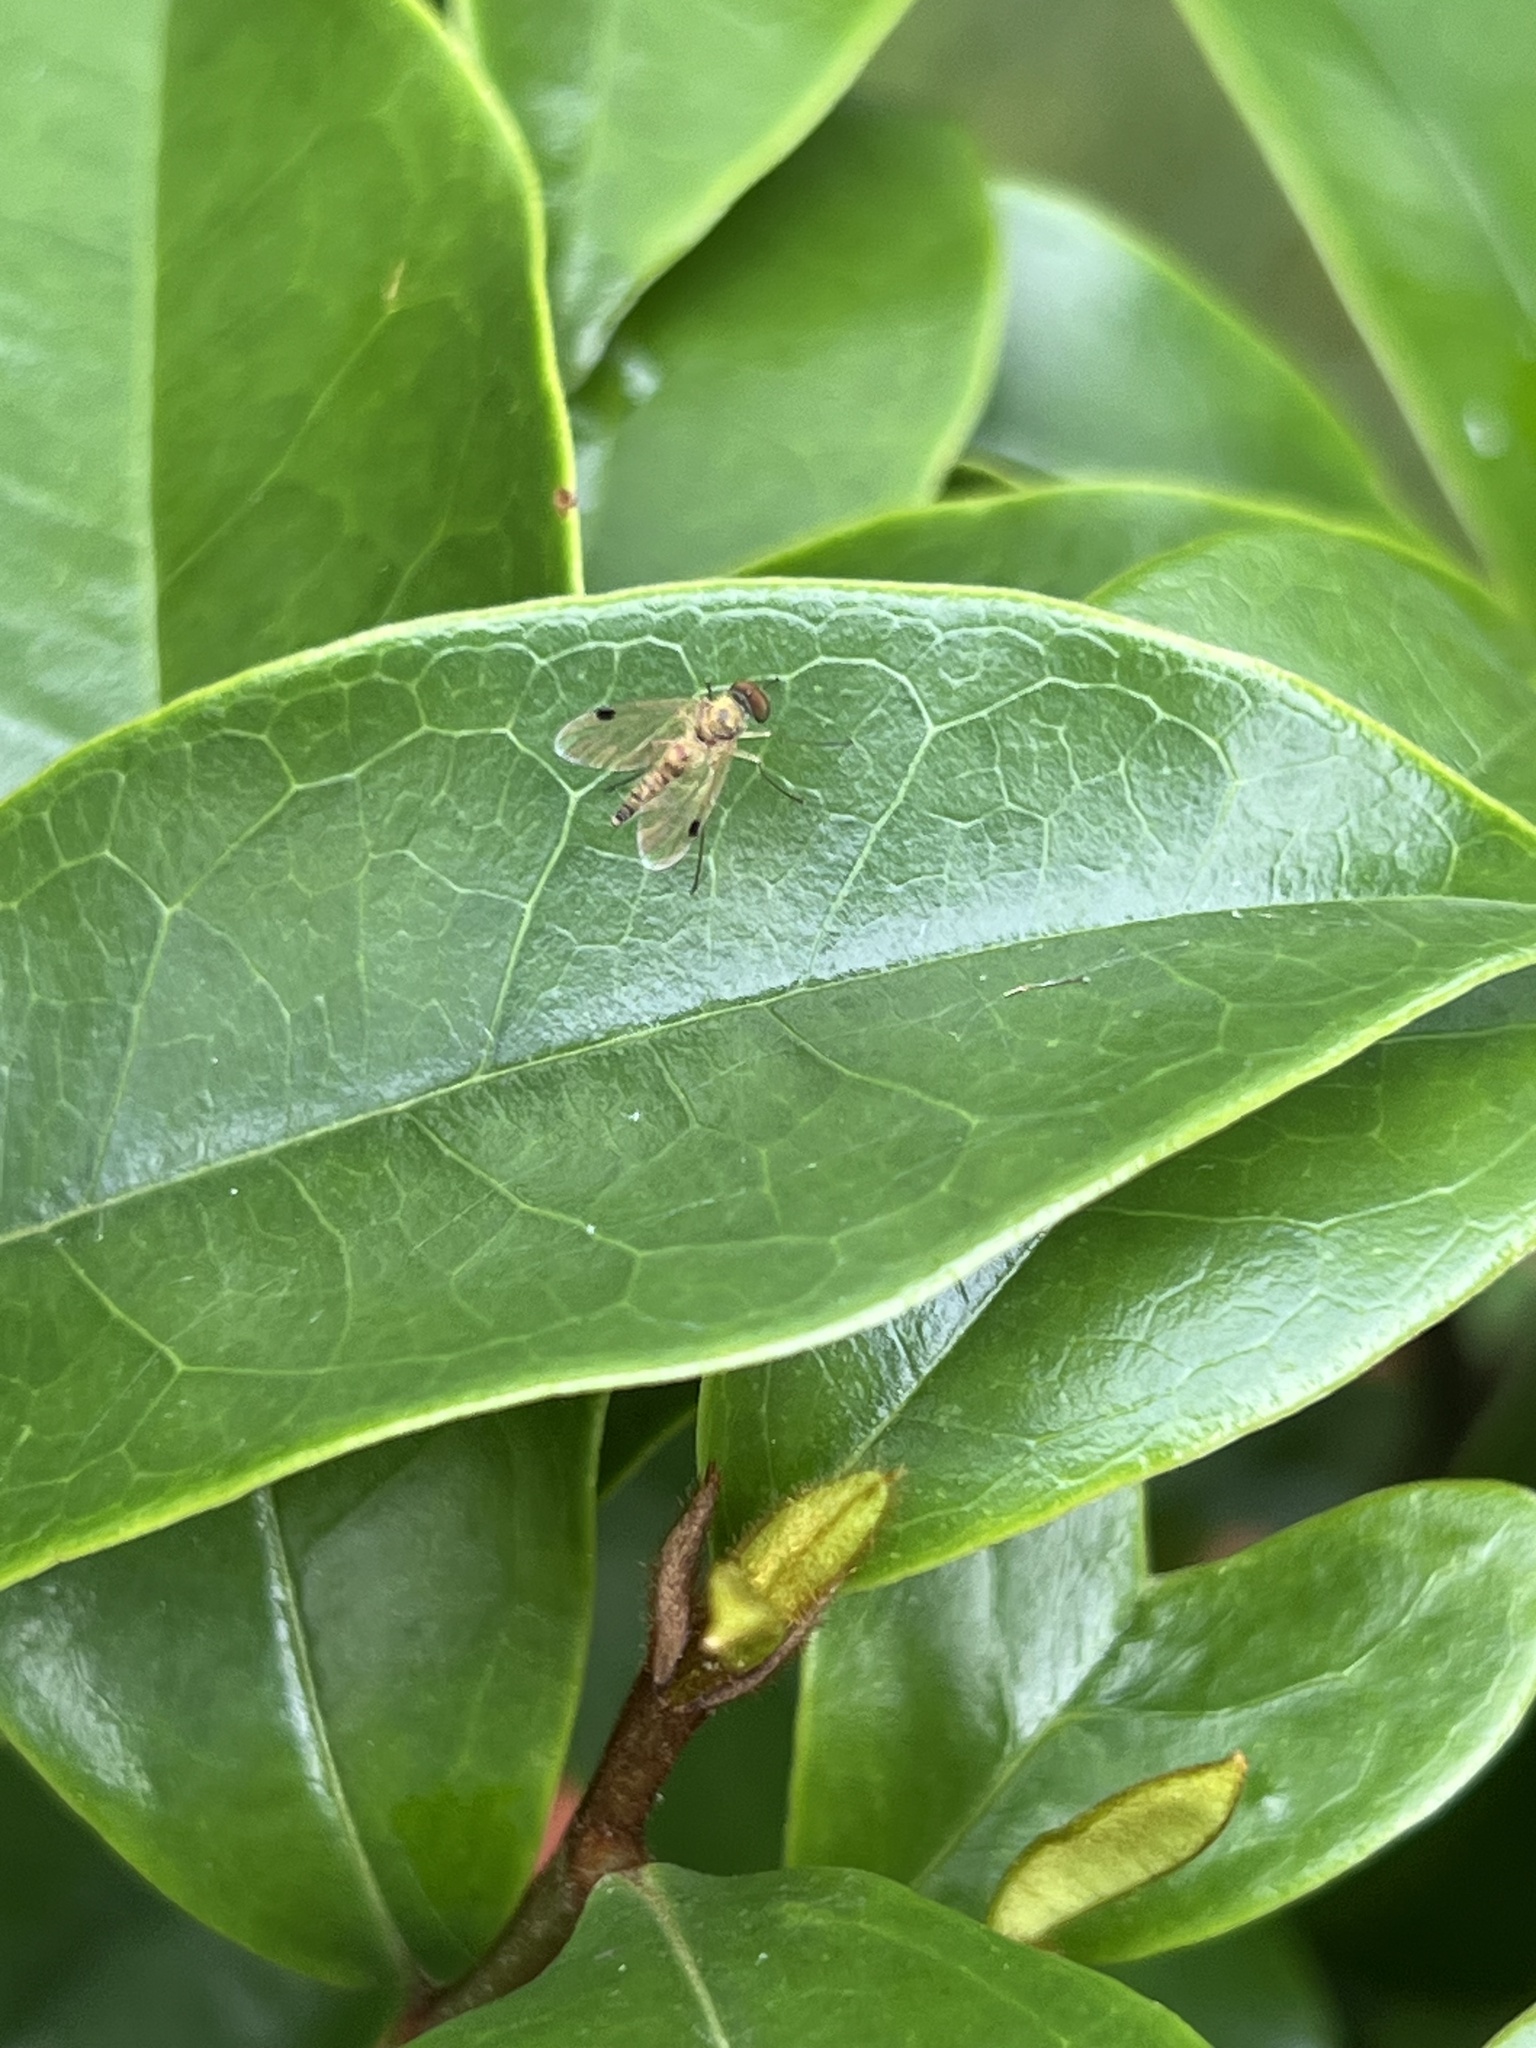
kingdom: Animalia
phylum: Arthropoda
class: Insecta
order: Diptera
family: Rhagionidae
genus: Chrysopilus
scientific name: Chrysopilus modestus
